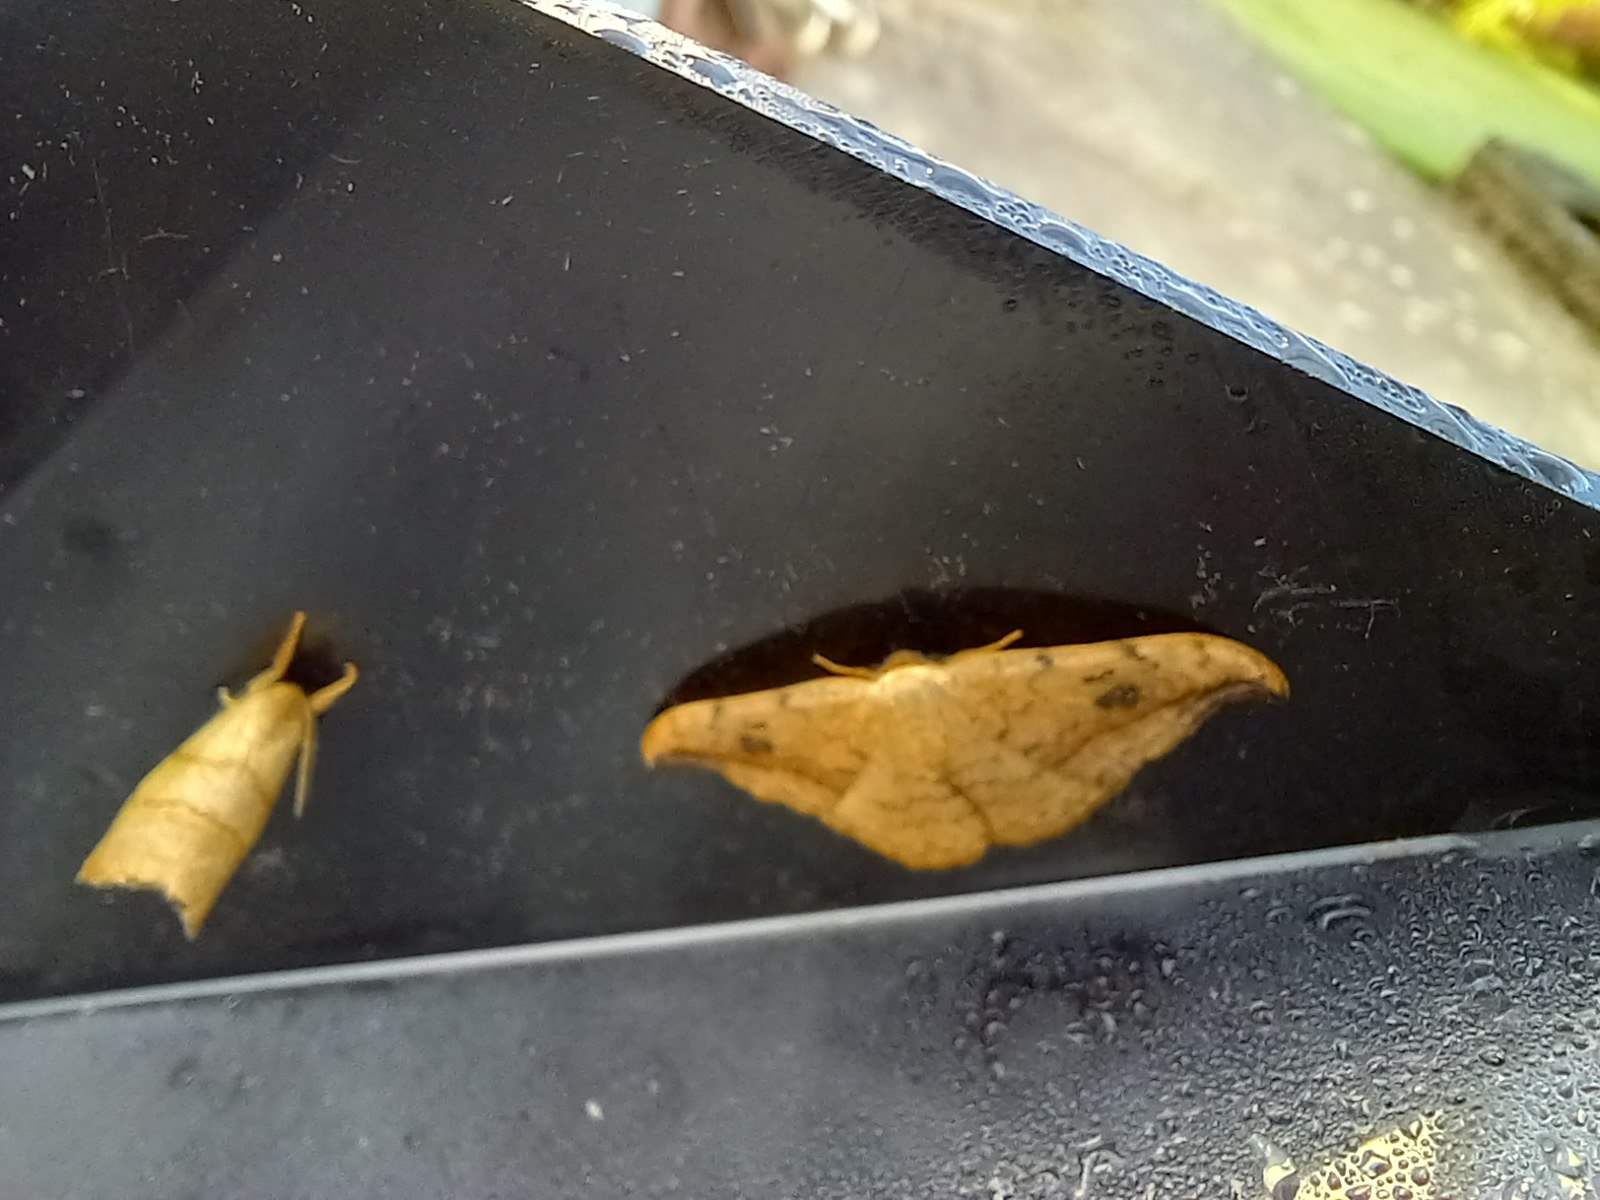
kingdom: Animalia
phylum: Arthropoda
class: Insecta
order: Lepidoptera
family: Drepanidae
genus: Drepana
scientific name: Drepana falcataria
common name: Pebble hook-tip
